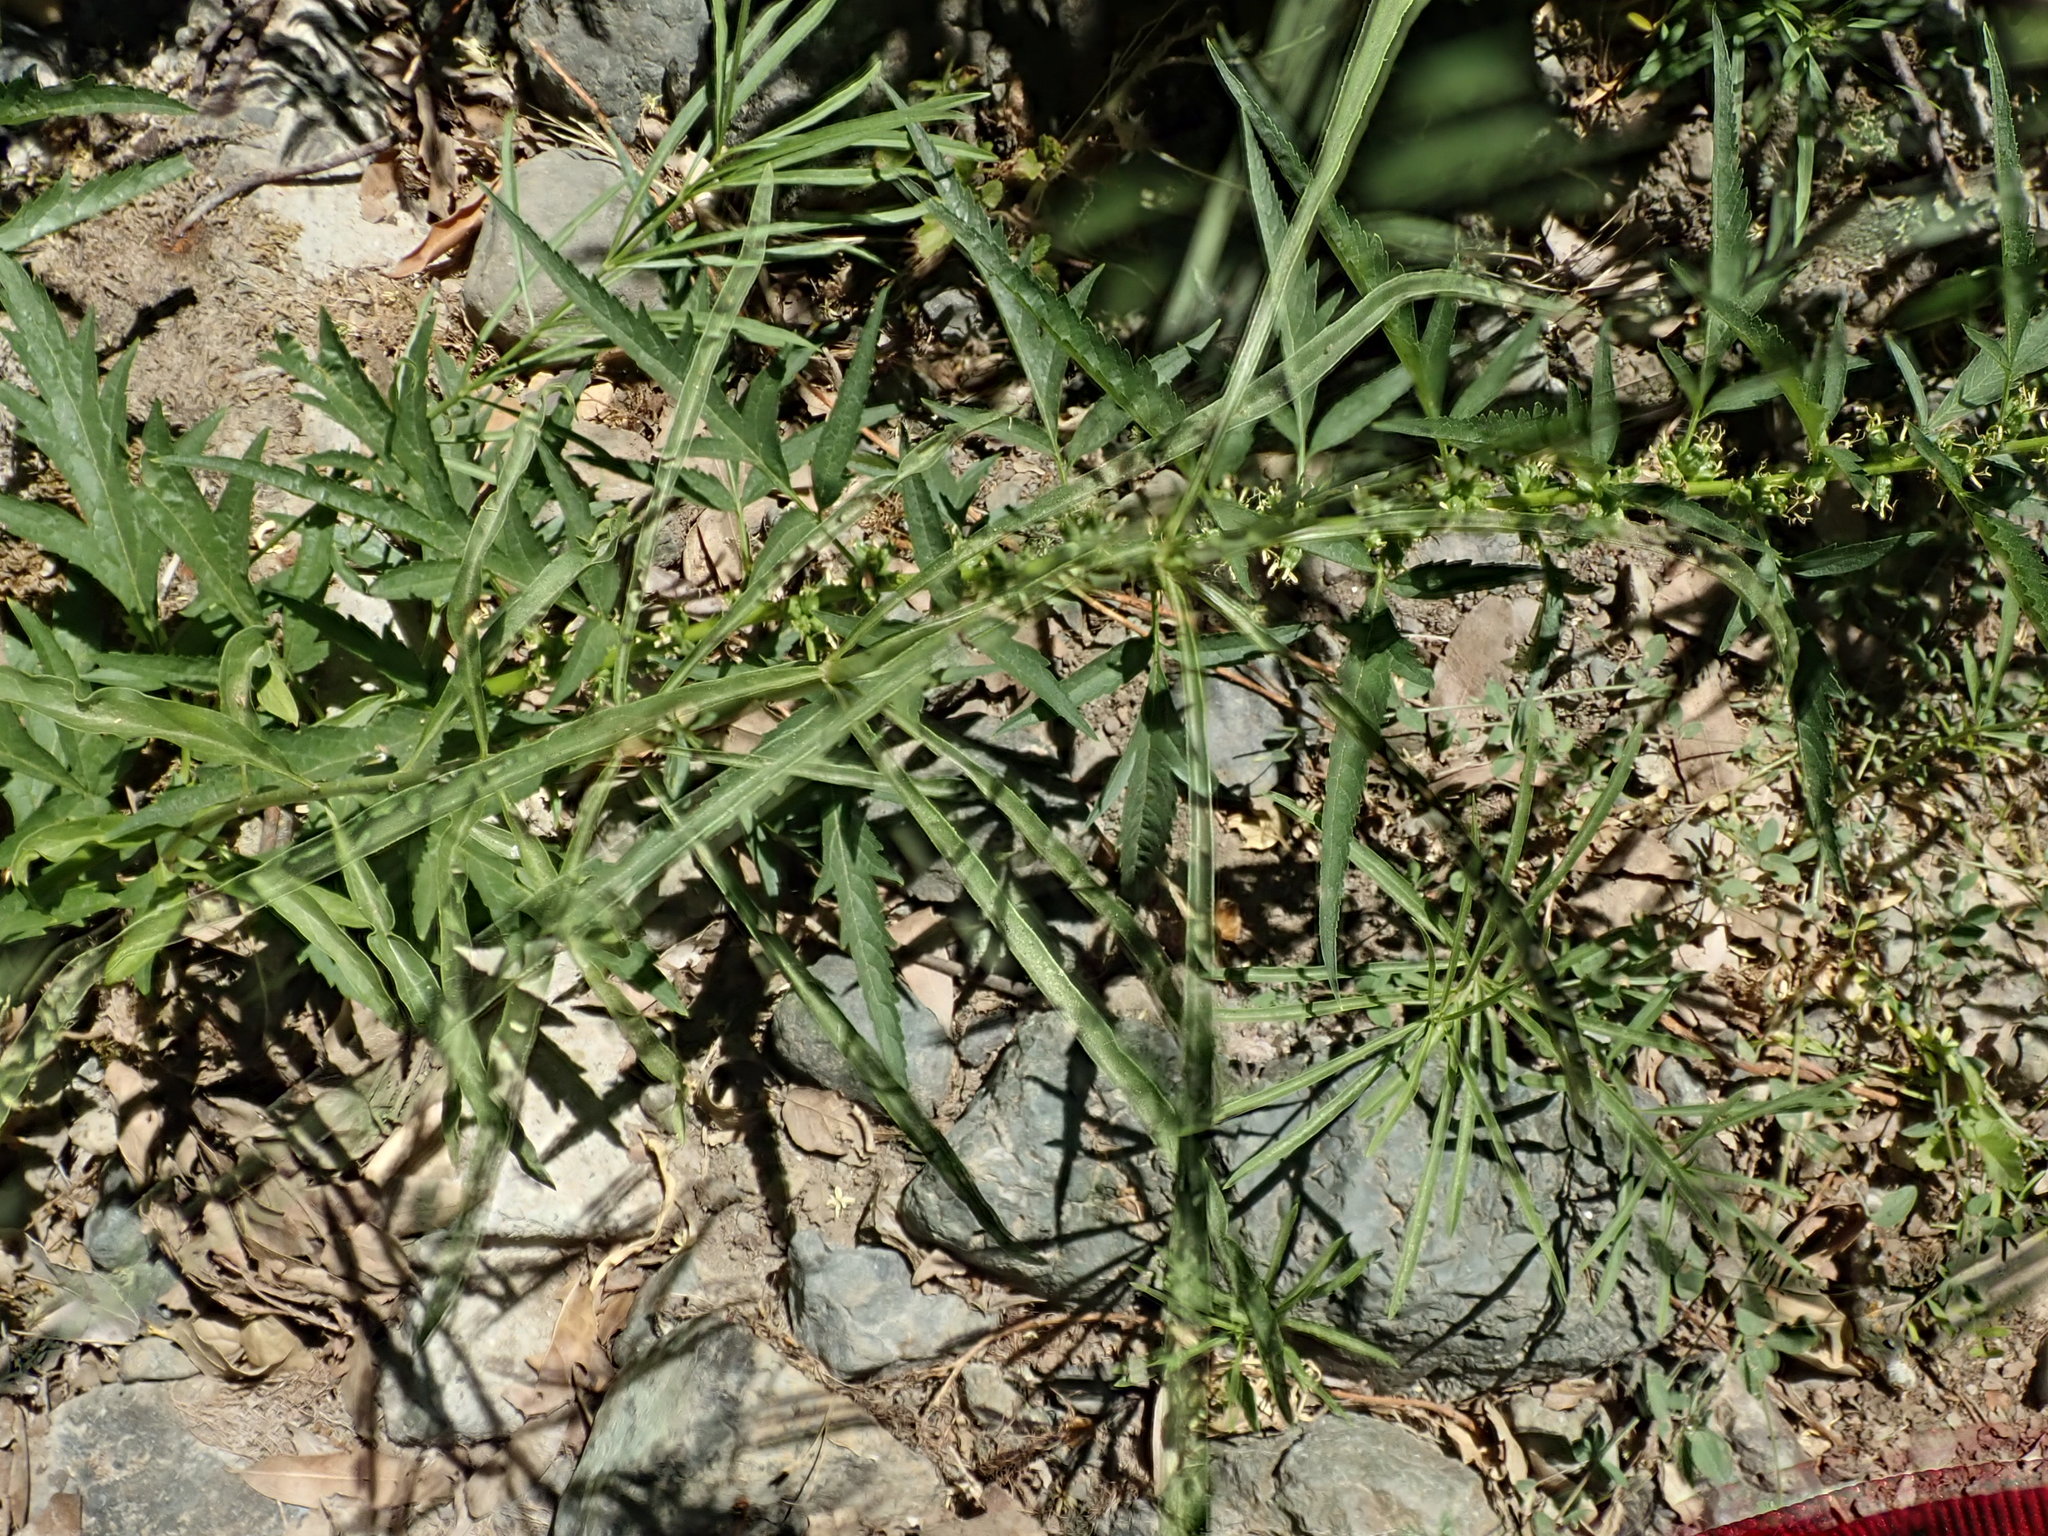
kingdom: Plantae
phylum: Tracheophyta
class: Magnoliopsida
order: Gentianales
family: Apocynaceae
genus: Asclepias
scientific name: Asclepias fascicularis
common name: Mexican milkweed
